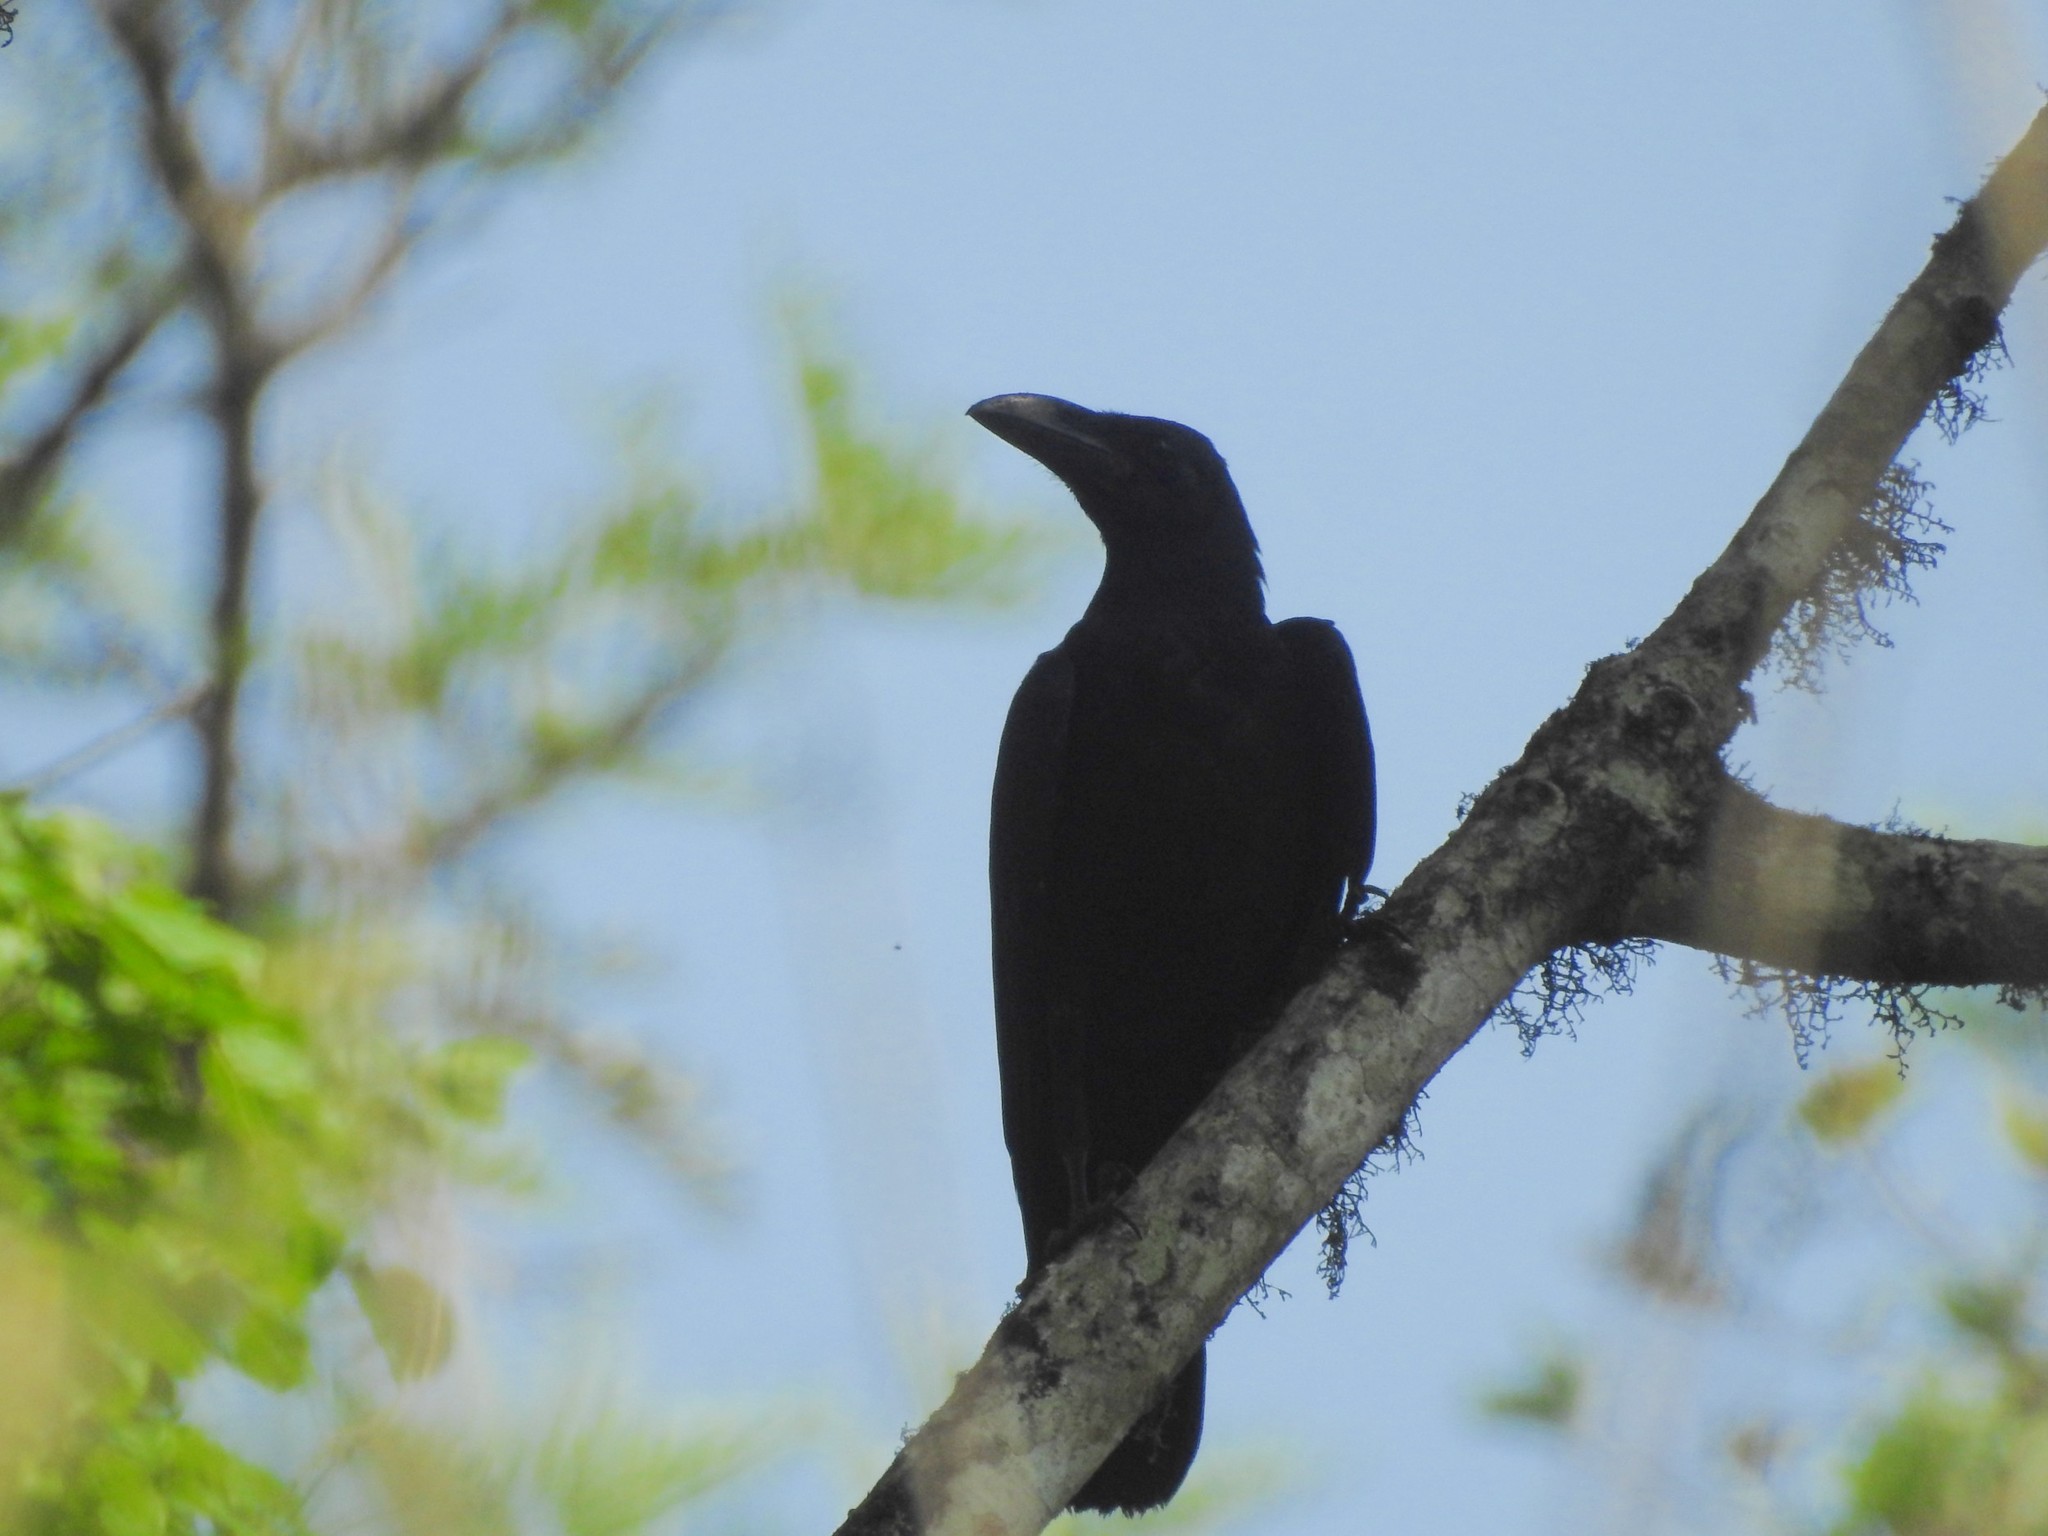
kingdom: Animalia
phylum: Chordata
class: Aves
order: Passeriformes
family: Corvidae
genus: Corvus
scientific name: Corvus macrorhynchos
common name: Large-billed crow
